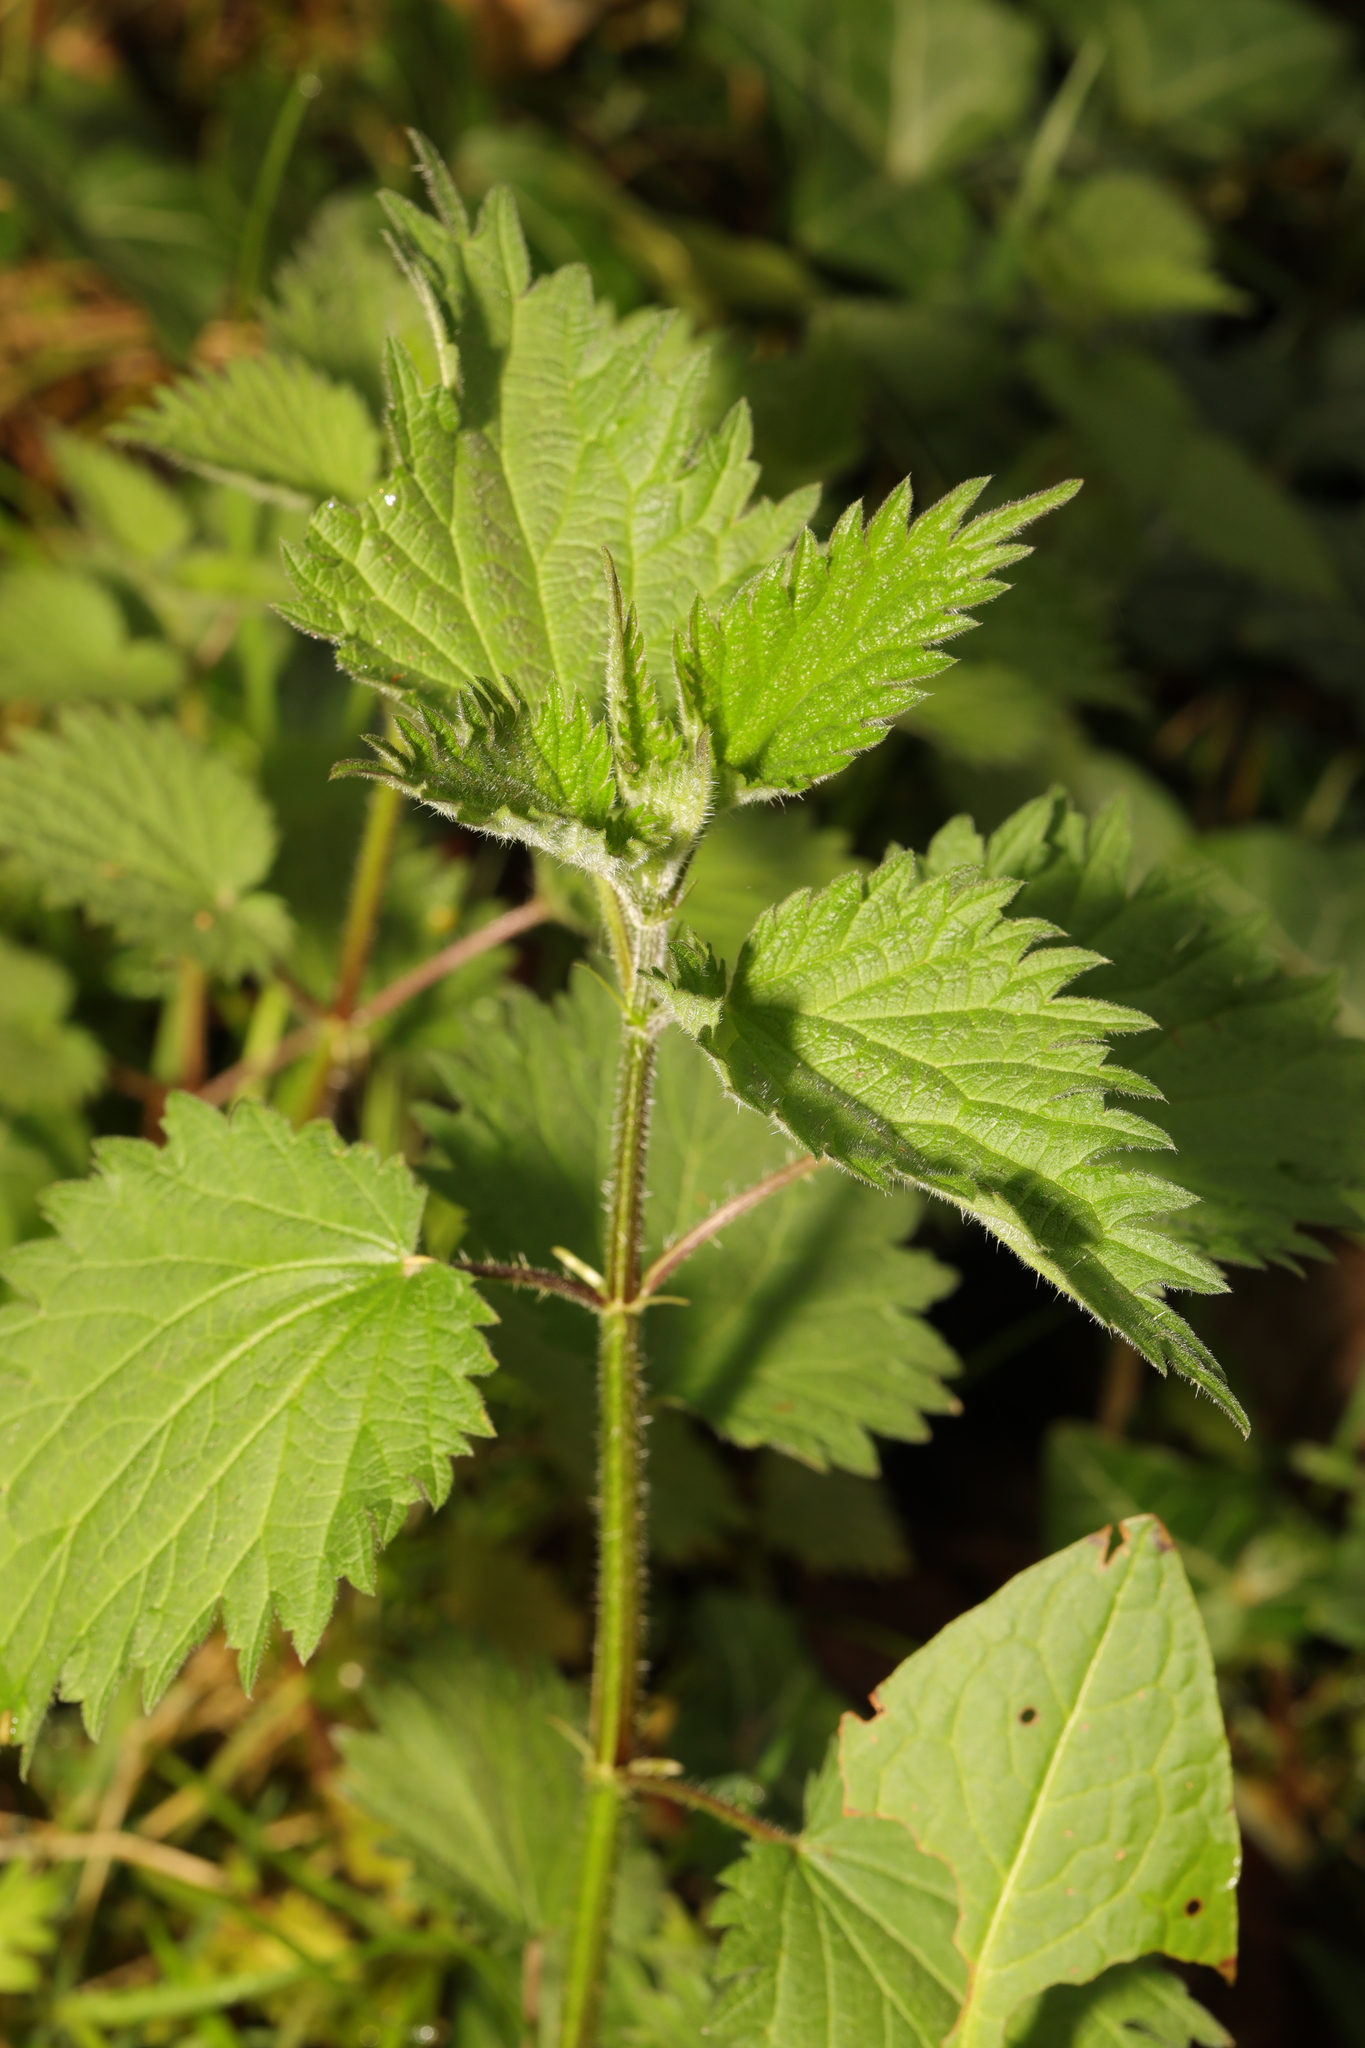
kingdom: Plantae
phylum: Tracheophyta
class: Magnoliopsida
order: Rosales
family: Urticaceae
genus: Urtica
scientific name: Urtica dioica
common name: Common nettle
